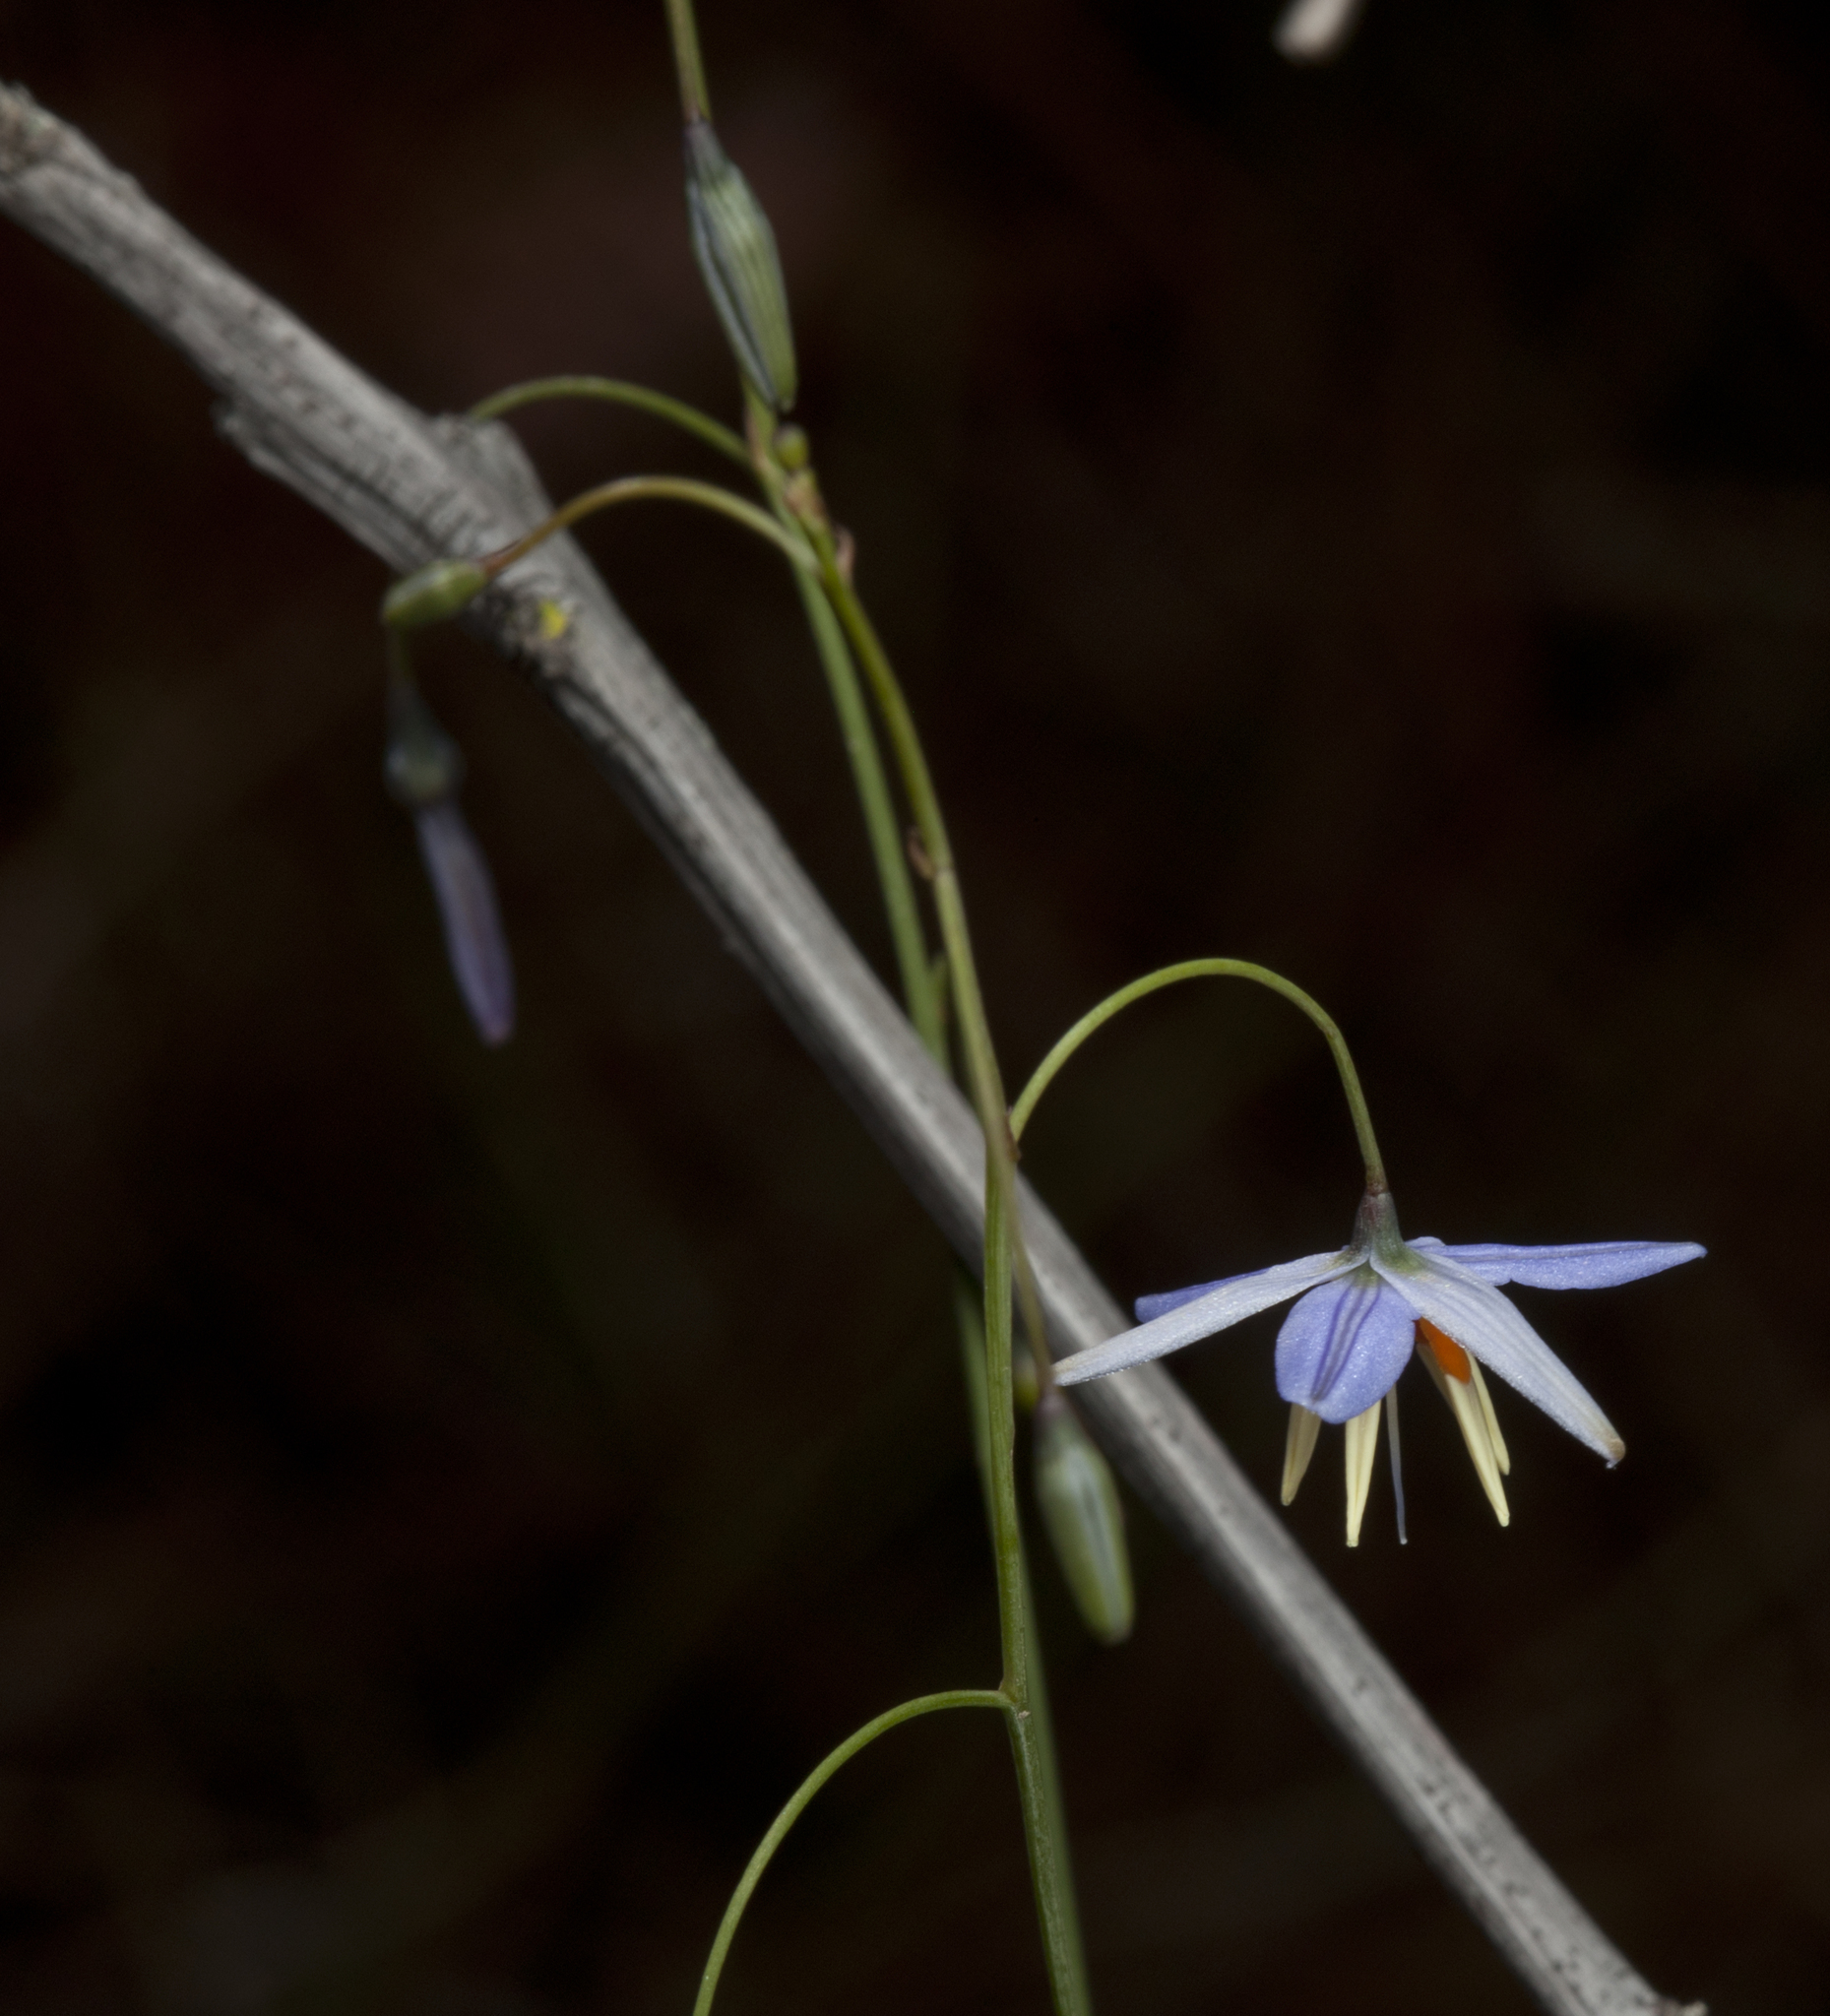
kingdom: Plantae
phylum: Tracheophyta
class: Liliopsida
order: Asparagales
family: Asphodelaceae
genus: Dianella
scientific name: Dianella rara
